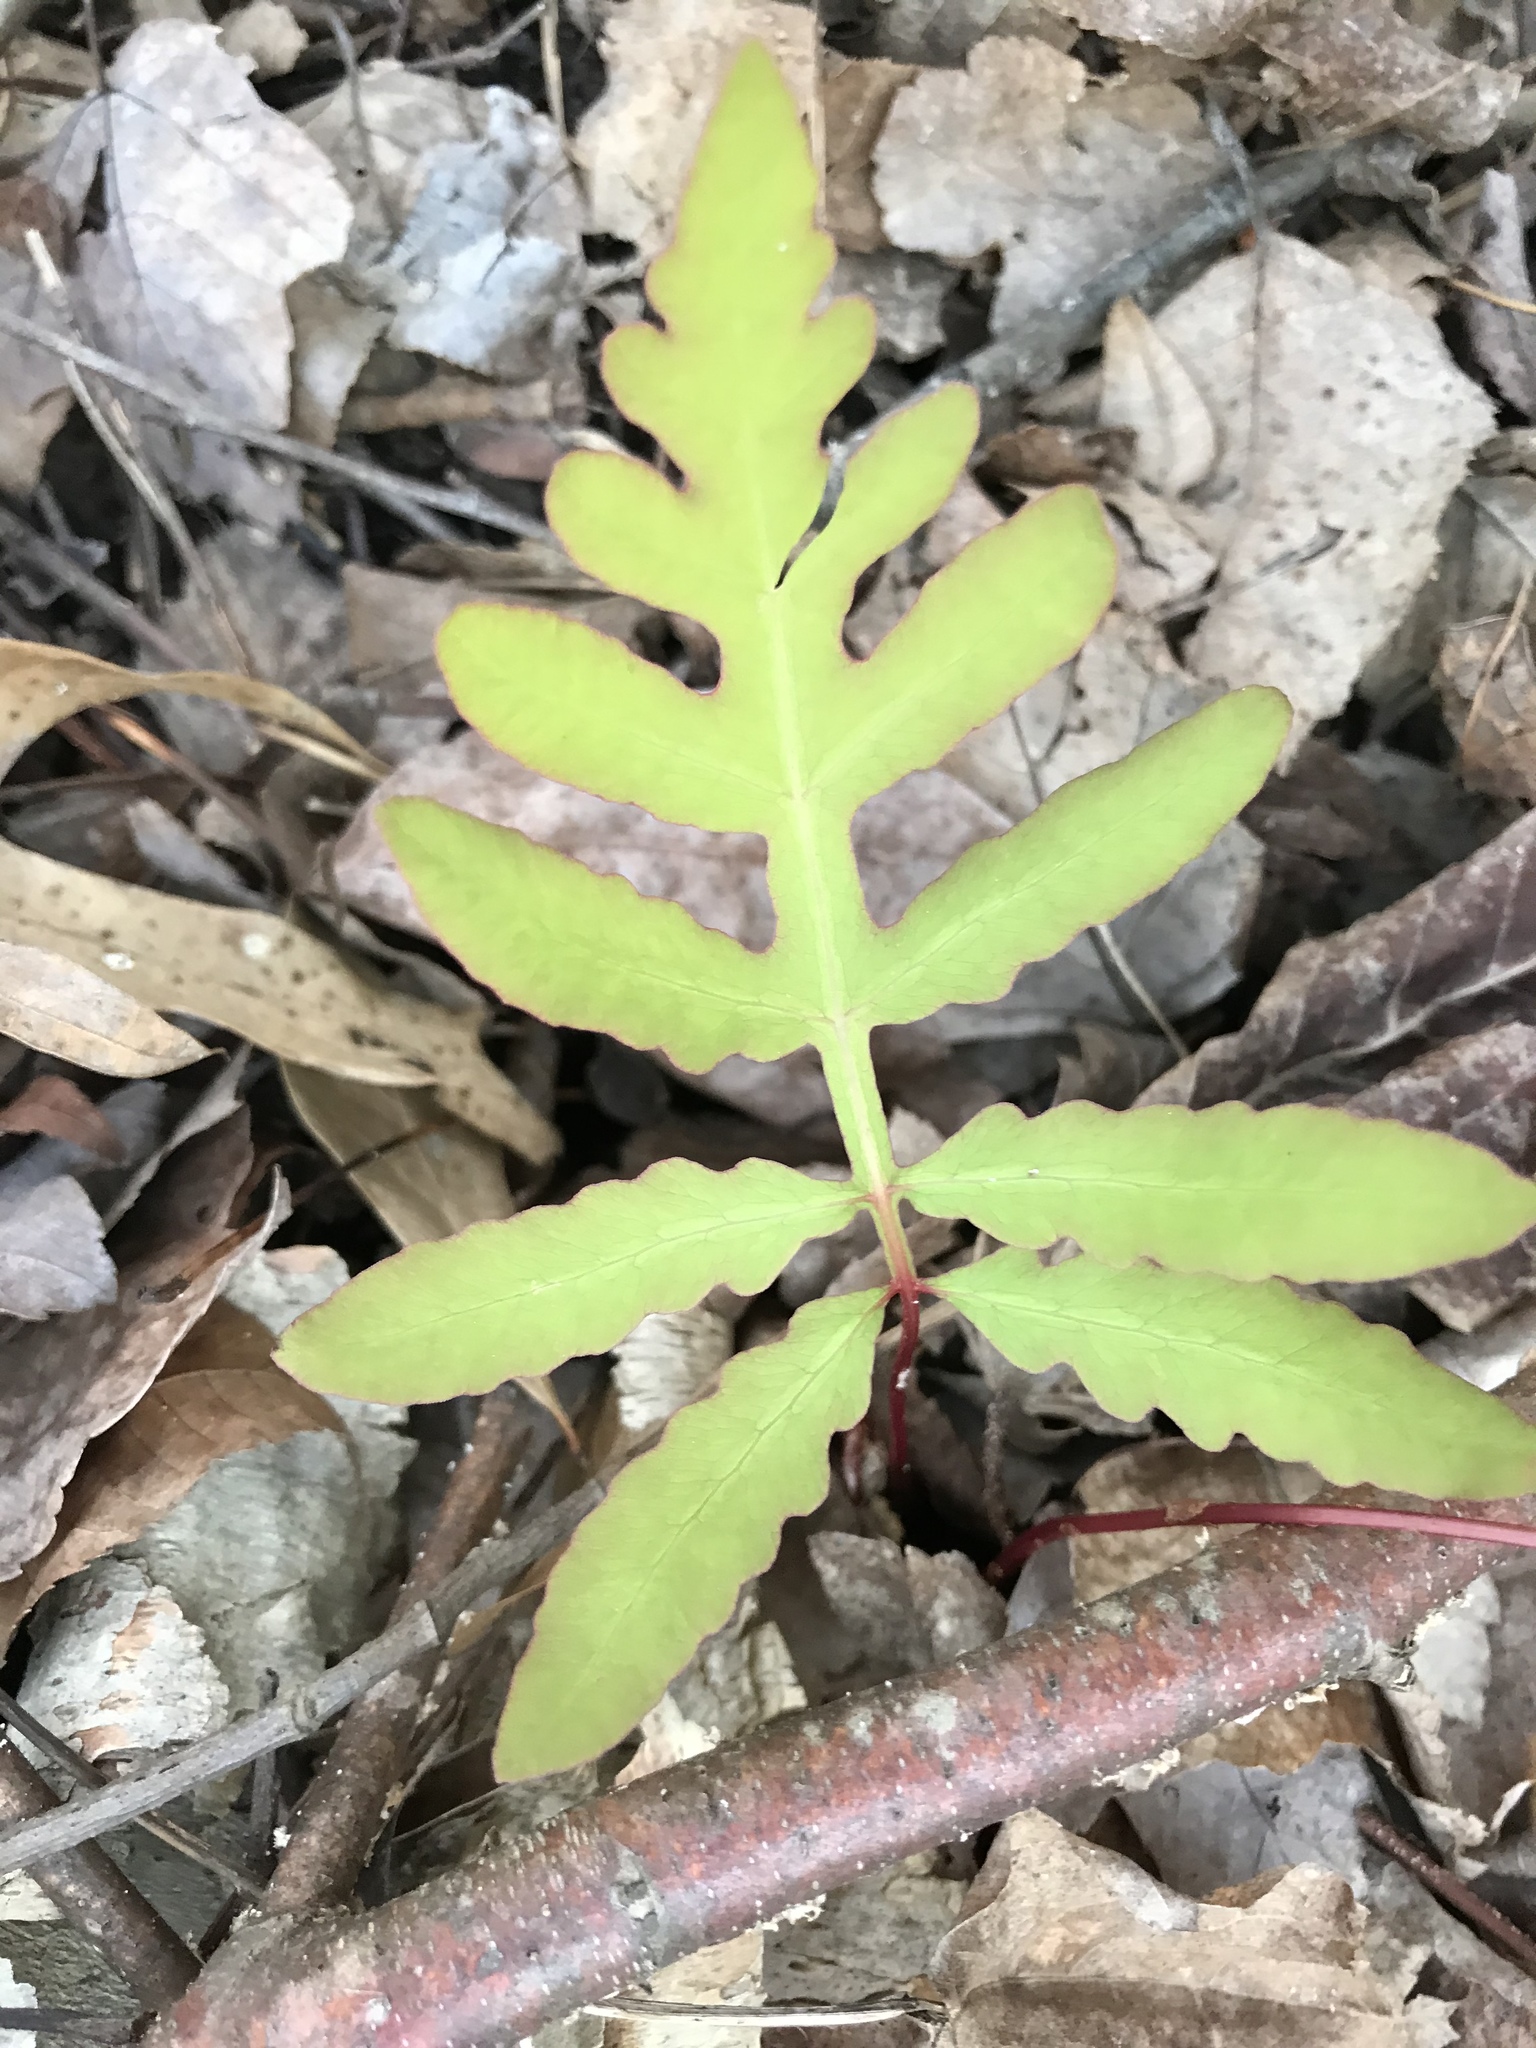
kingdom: Plantae
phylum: Tracheophyta
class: Polypodiopsida
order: Polypodiales
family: Onocleaceae
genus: Onoclea
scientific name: Onoclea sensibilis
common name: Sensitive fern
